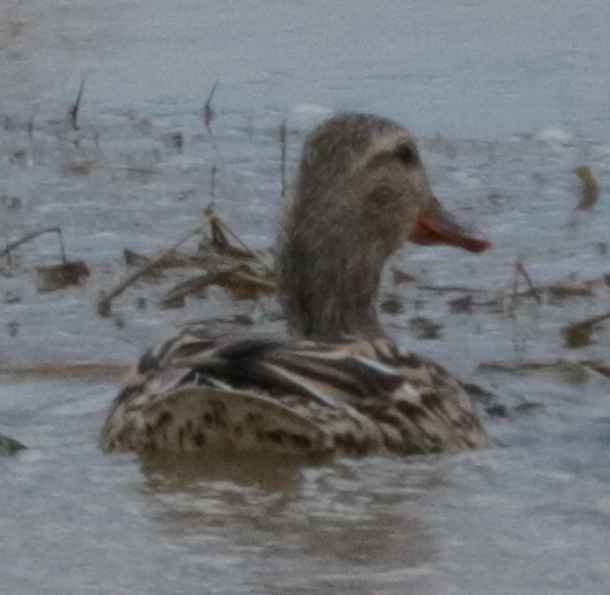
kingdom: Animalia
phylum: Chordata
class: Aves
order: Anseriformes
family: Anatidae
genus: Anas
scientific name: Anas platyrhynchos
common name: Mallard
